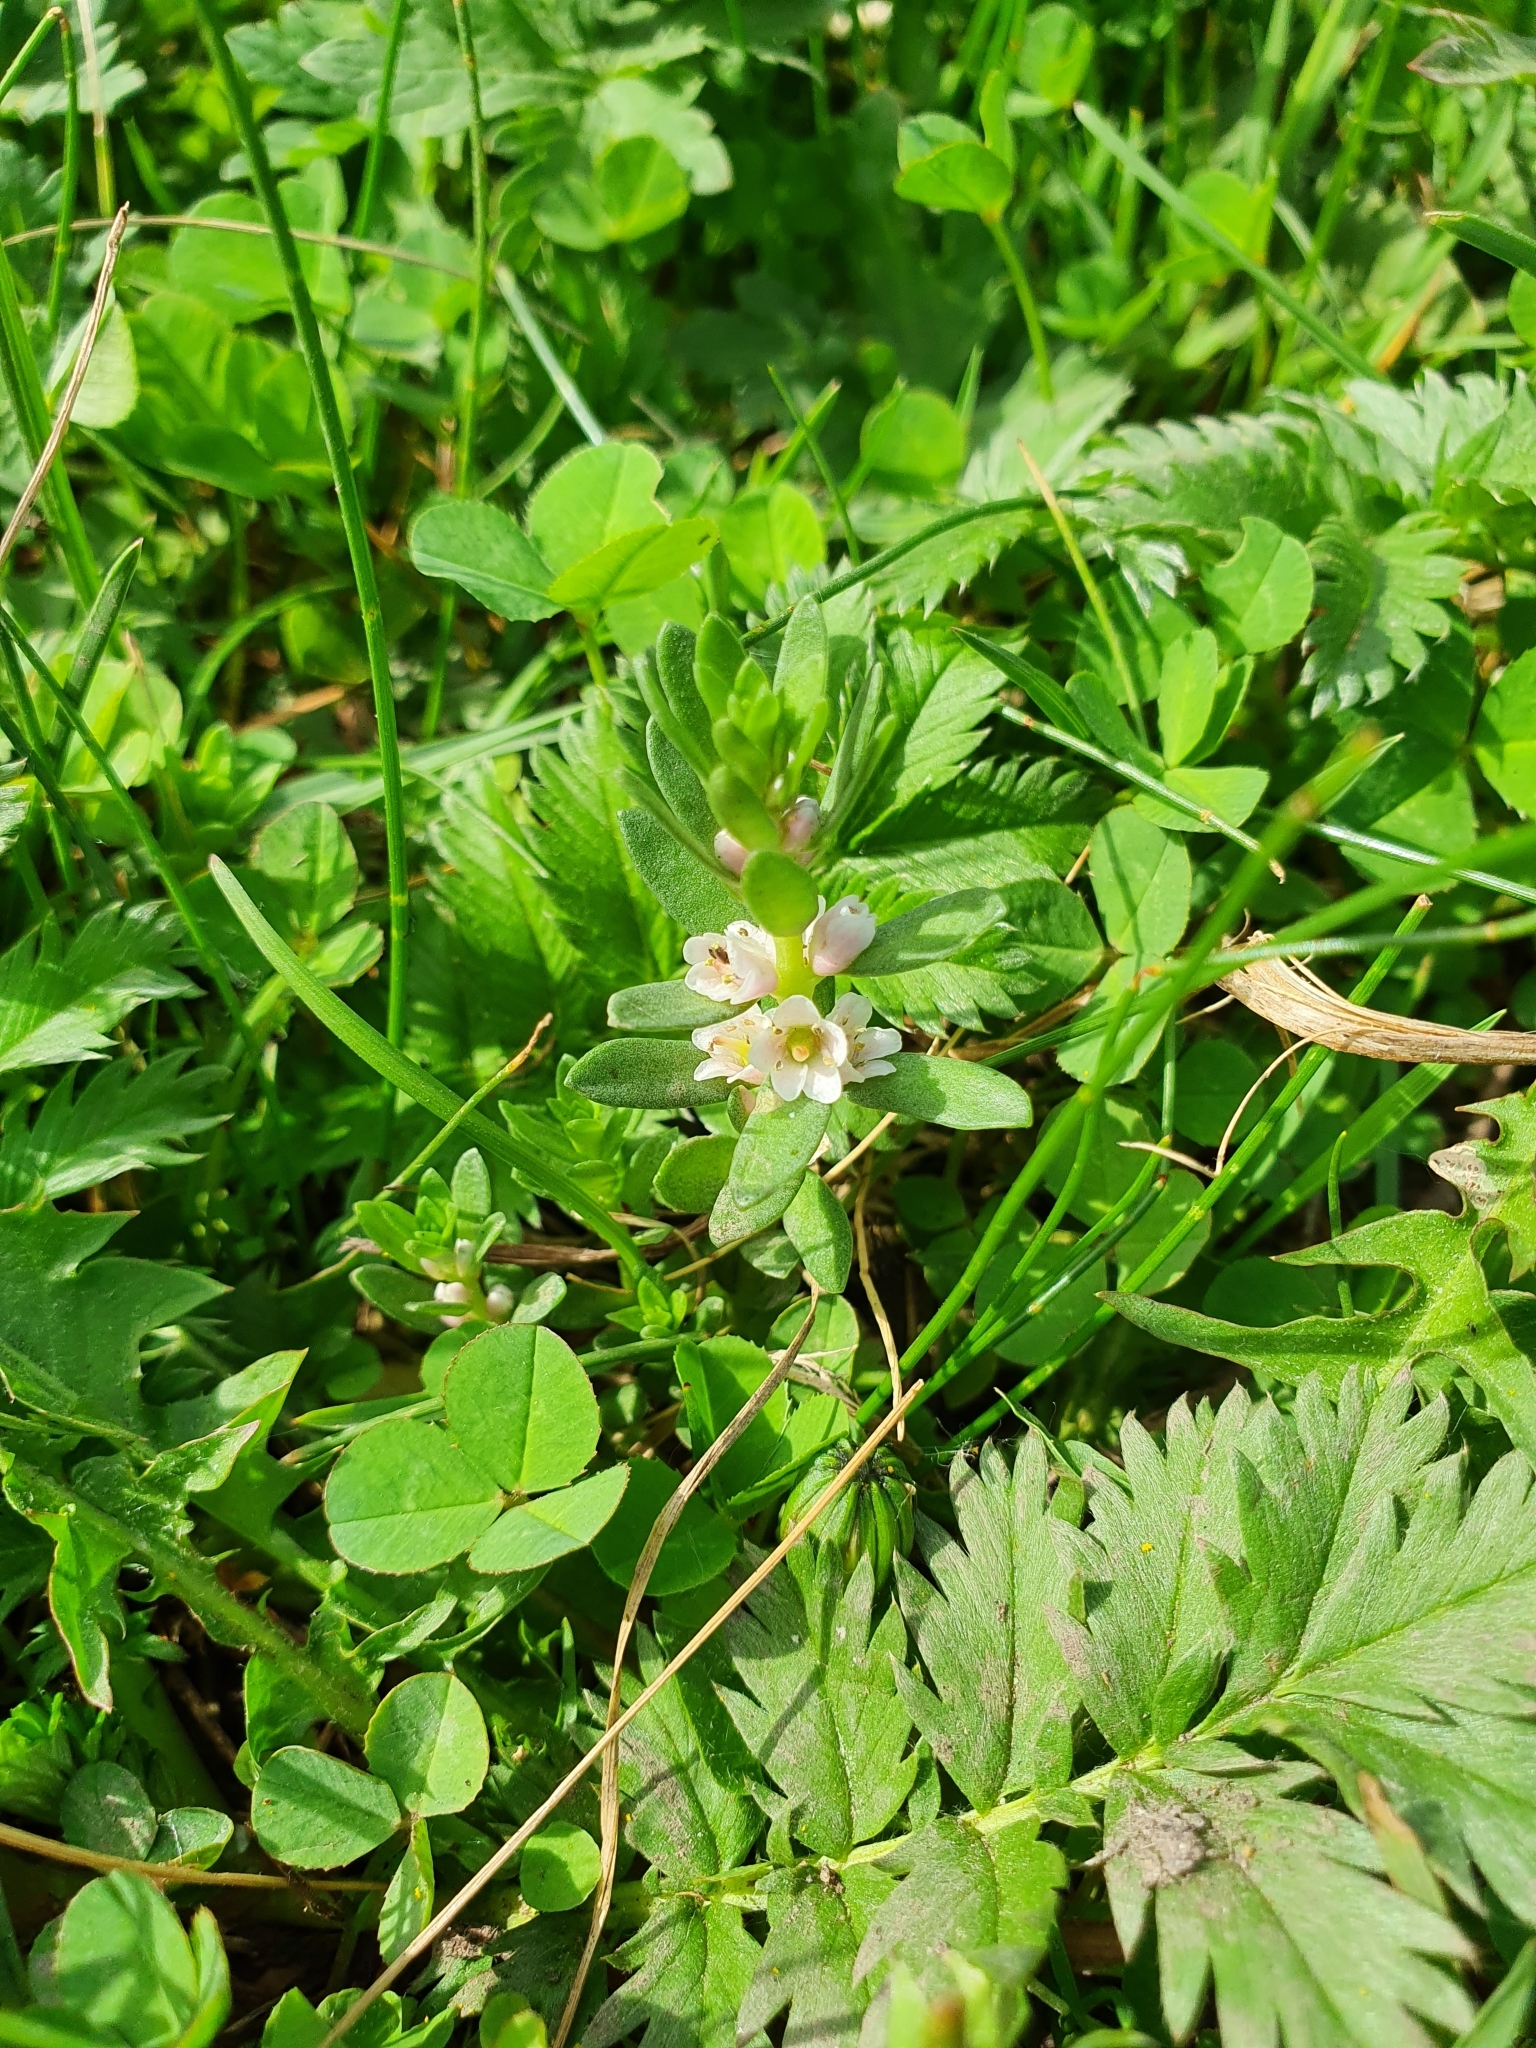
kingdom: Plantae
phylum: Tracheophyta
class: Magnoliopsida
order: Ericales
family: Primulaceae
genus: Lysimachia
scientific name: Lysimachia maritima
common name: Sea milkwort
